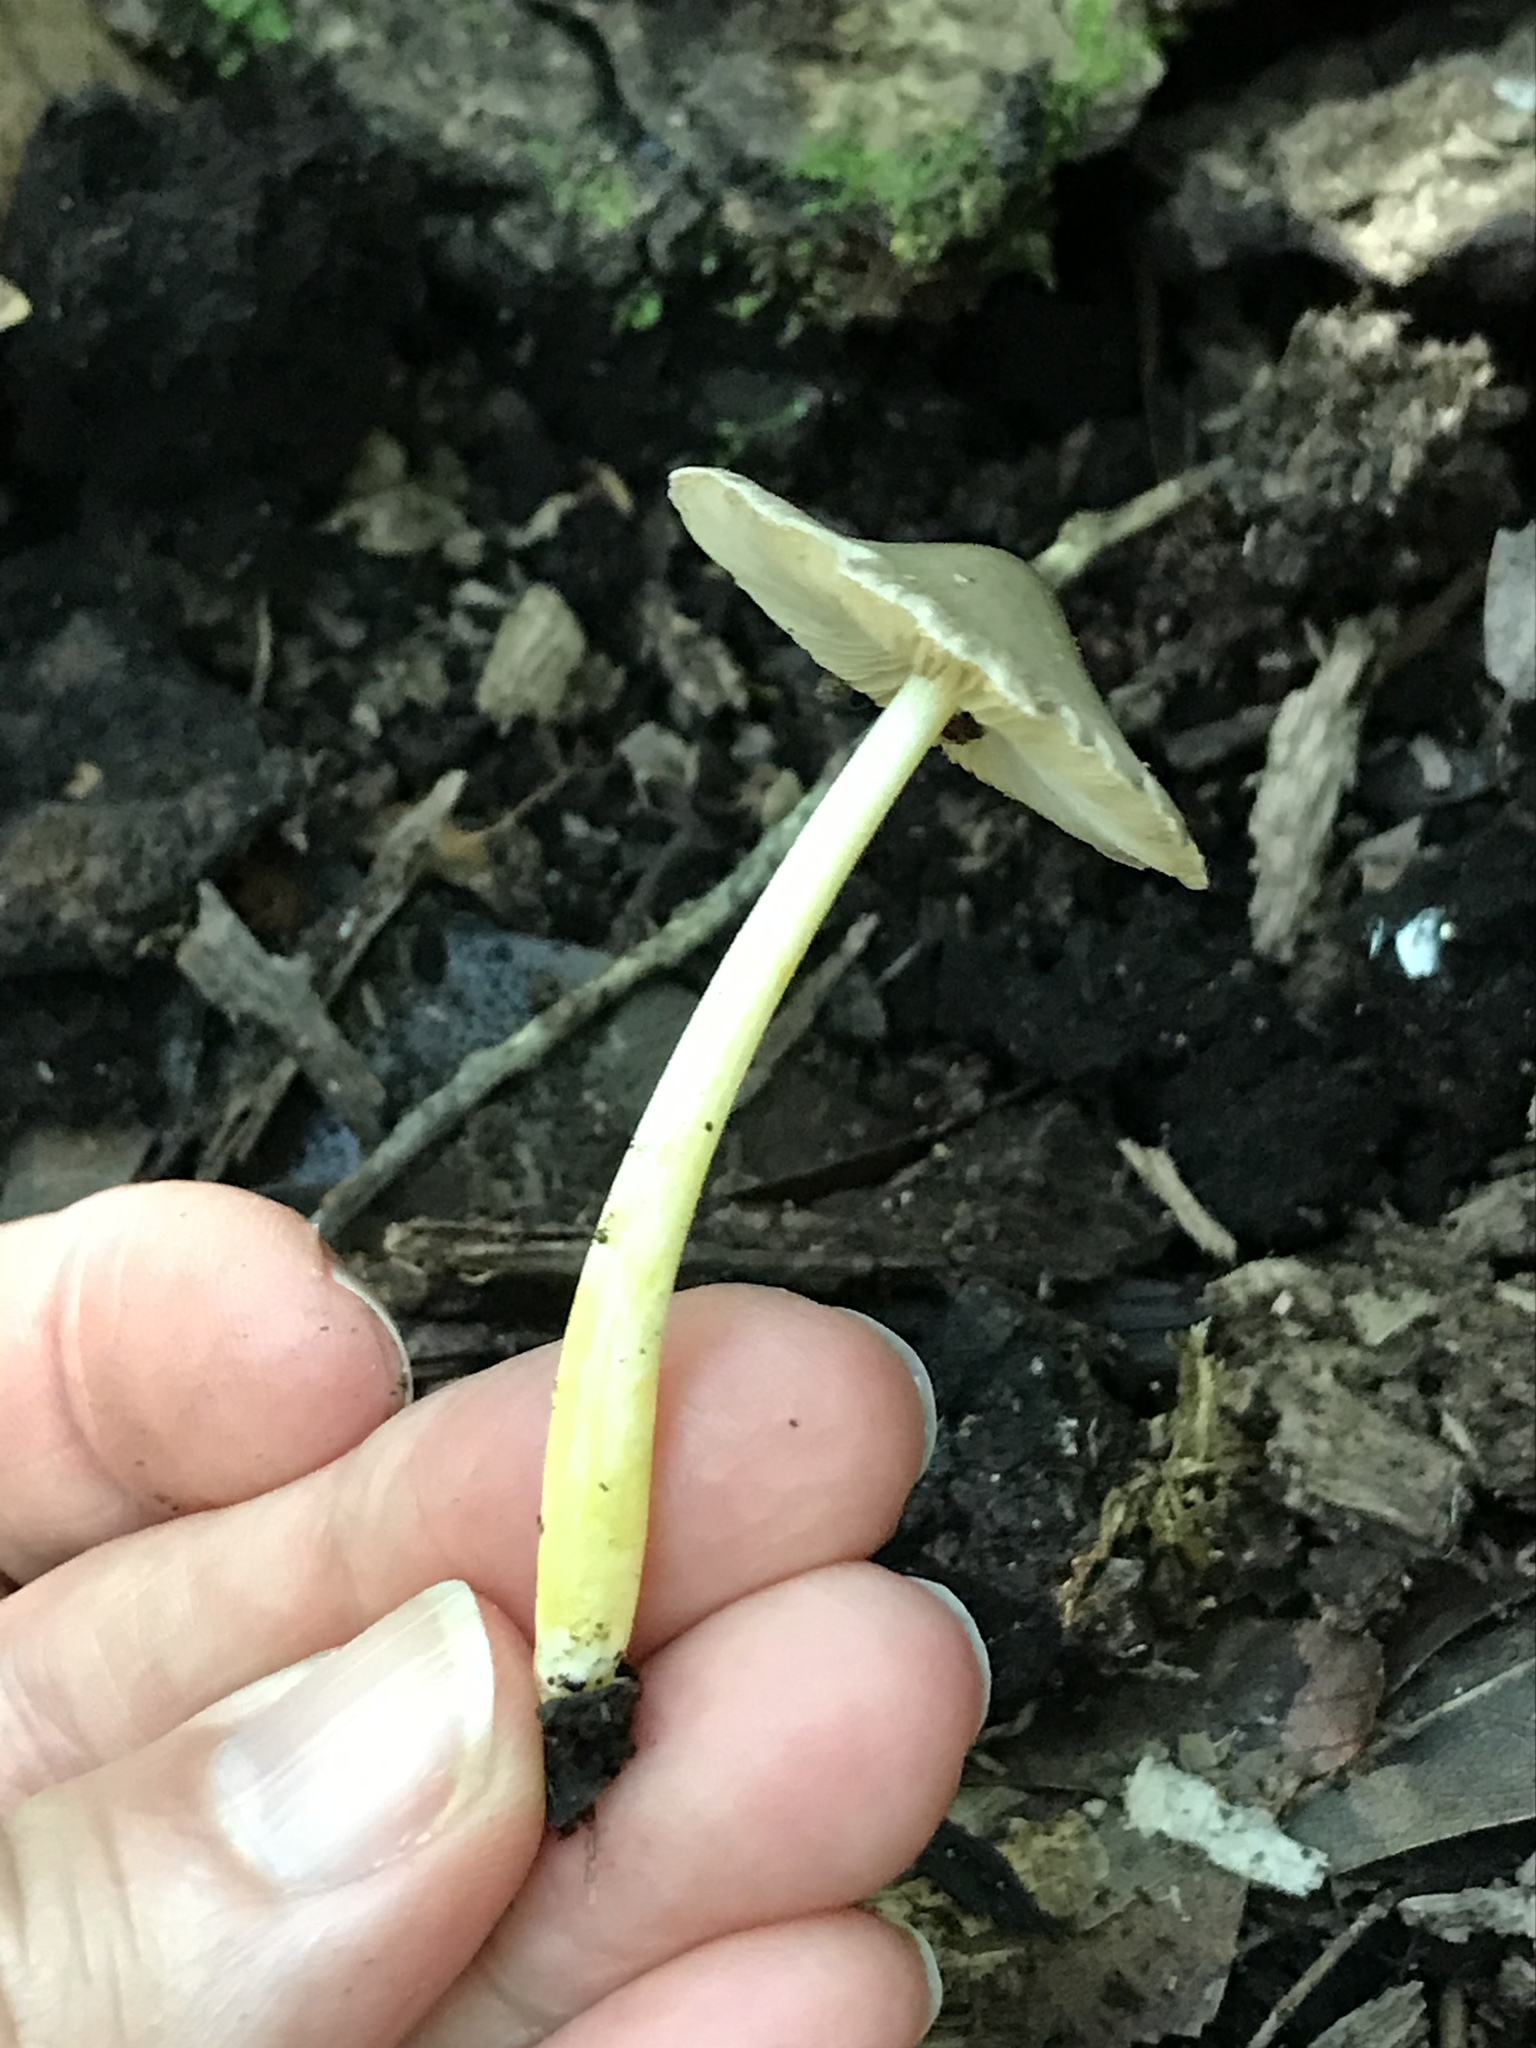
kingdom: Fungi
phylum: Basidiomycota
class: Agaricomycetes
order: Agaricales
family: Bolbitiaceae
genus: Bolbitius
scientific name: Bolbitius reticulatus
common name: Netted fieldcap
